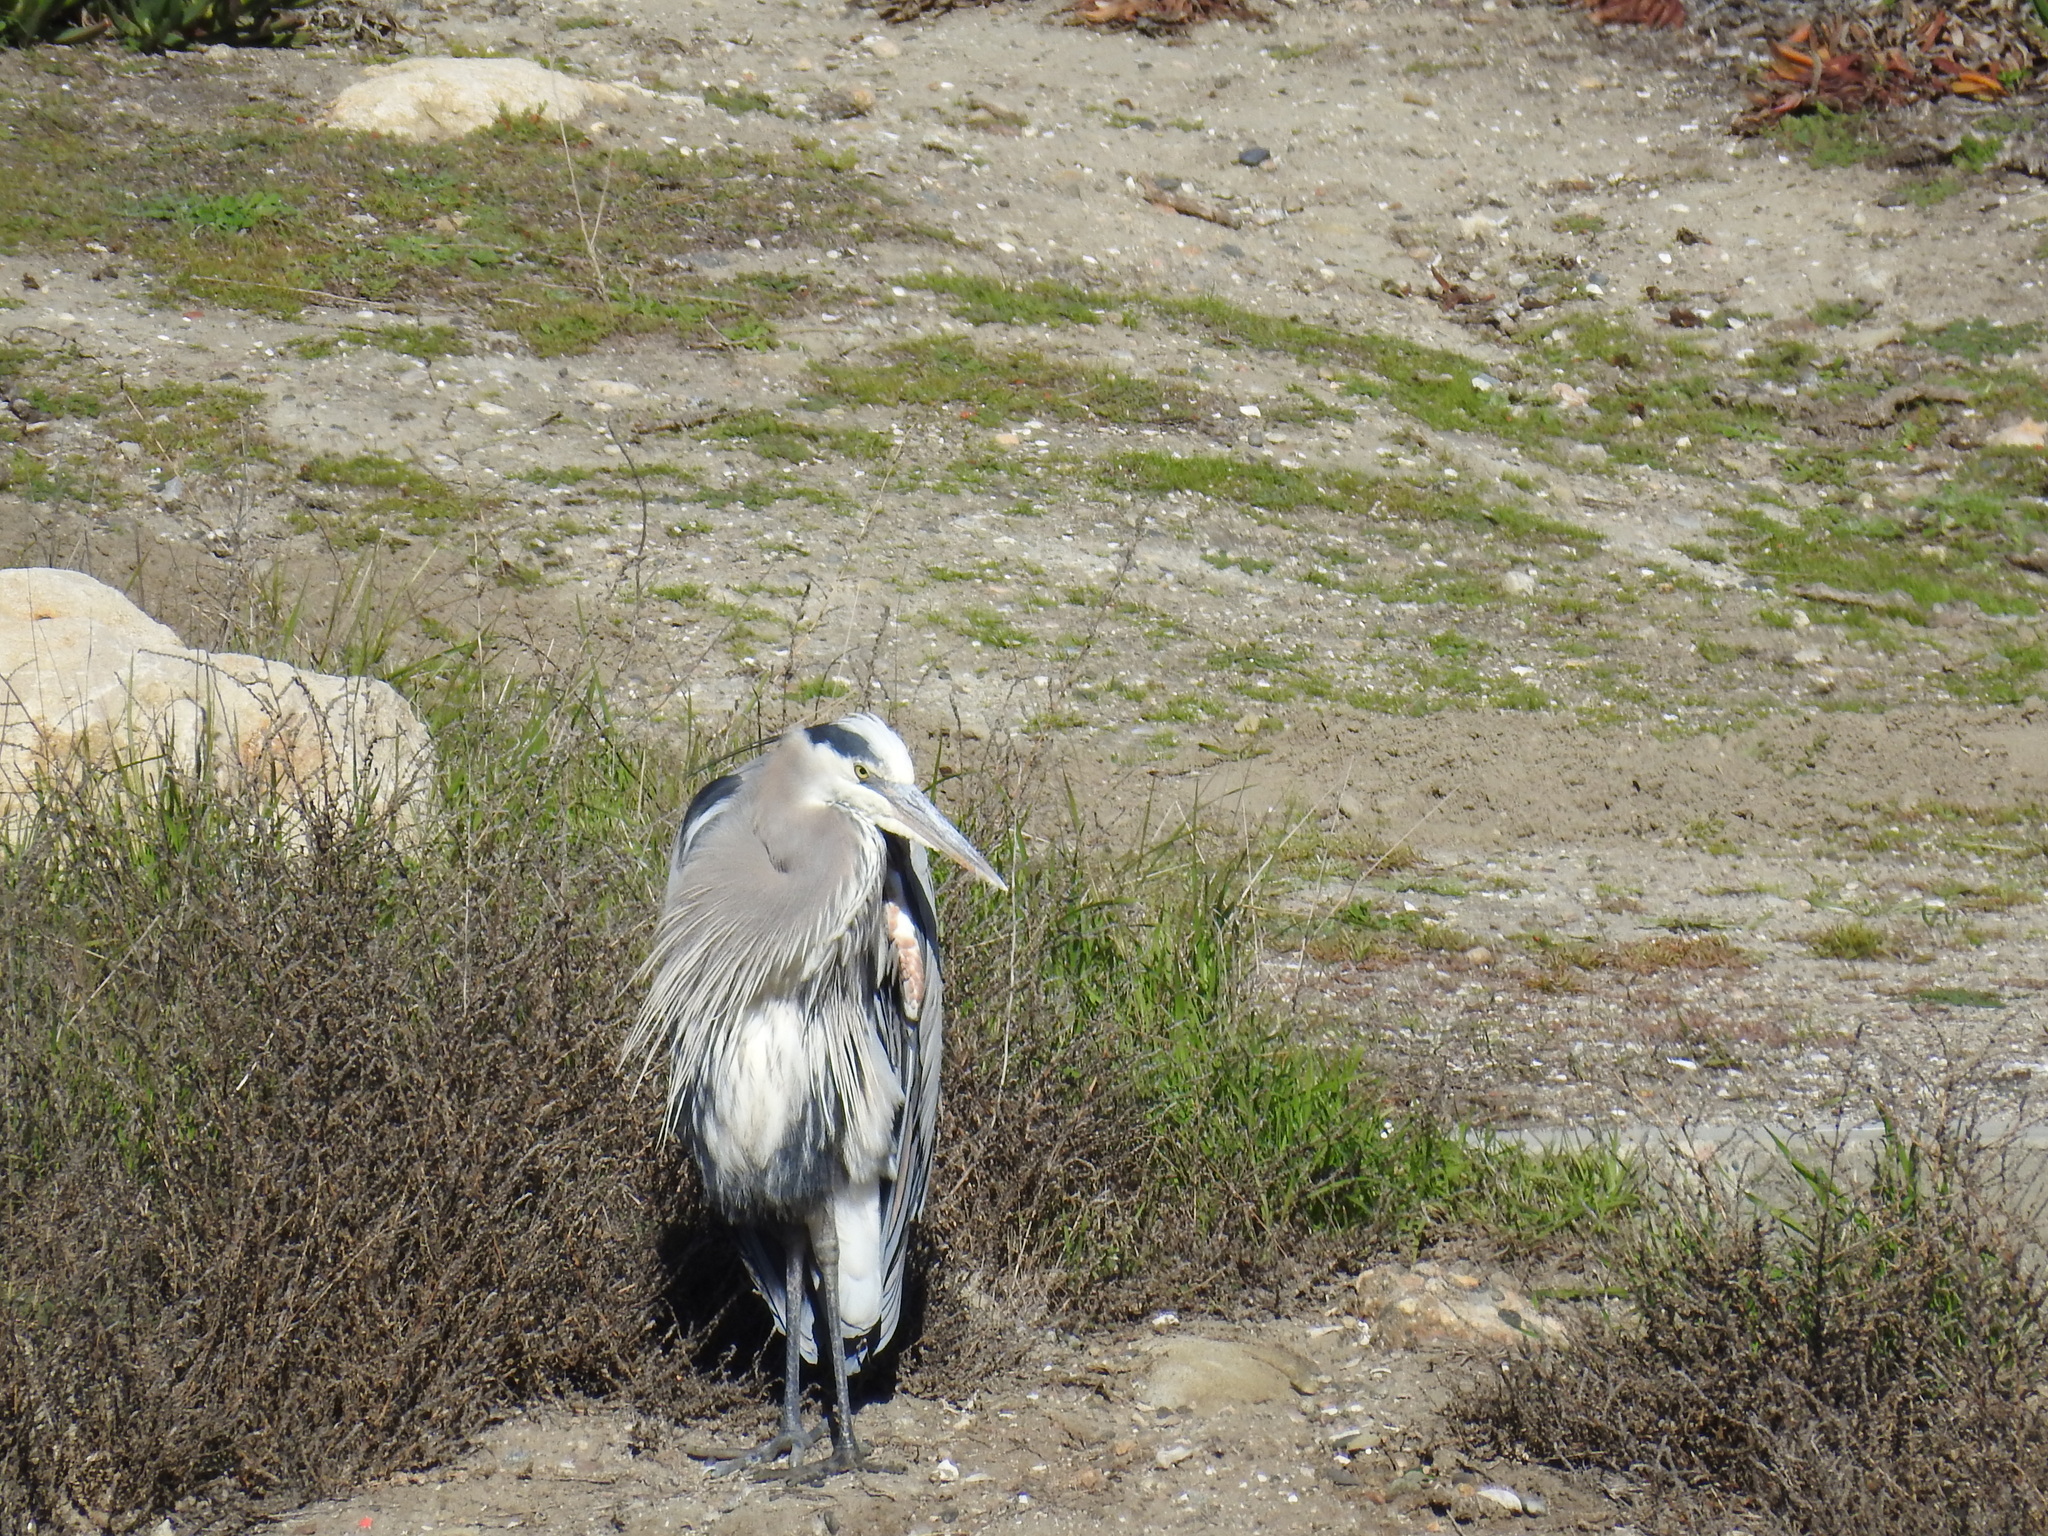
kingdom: Animalia
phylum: Chordata
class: Aves
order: Pelecaniformes
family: Ardeidae
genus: Ardea
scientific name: Ardea herodias
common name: Great blue heron
